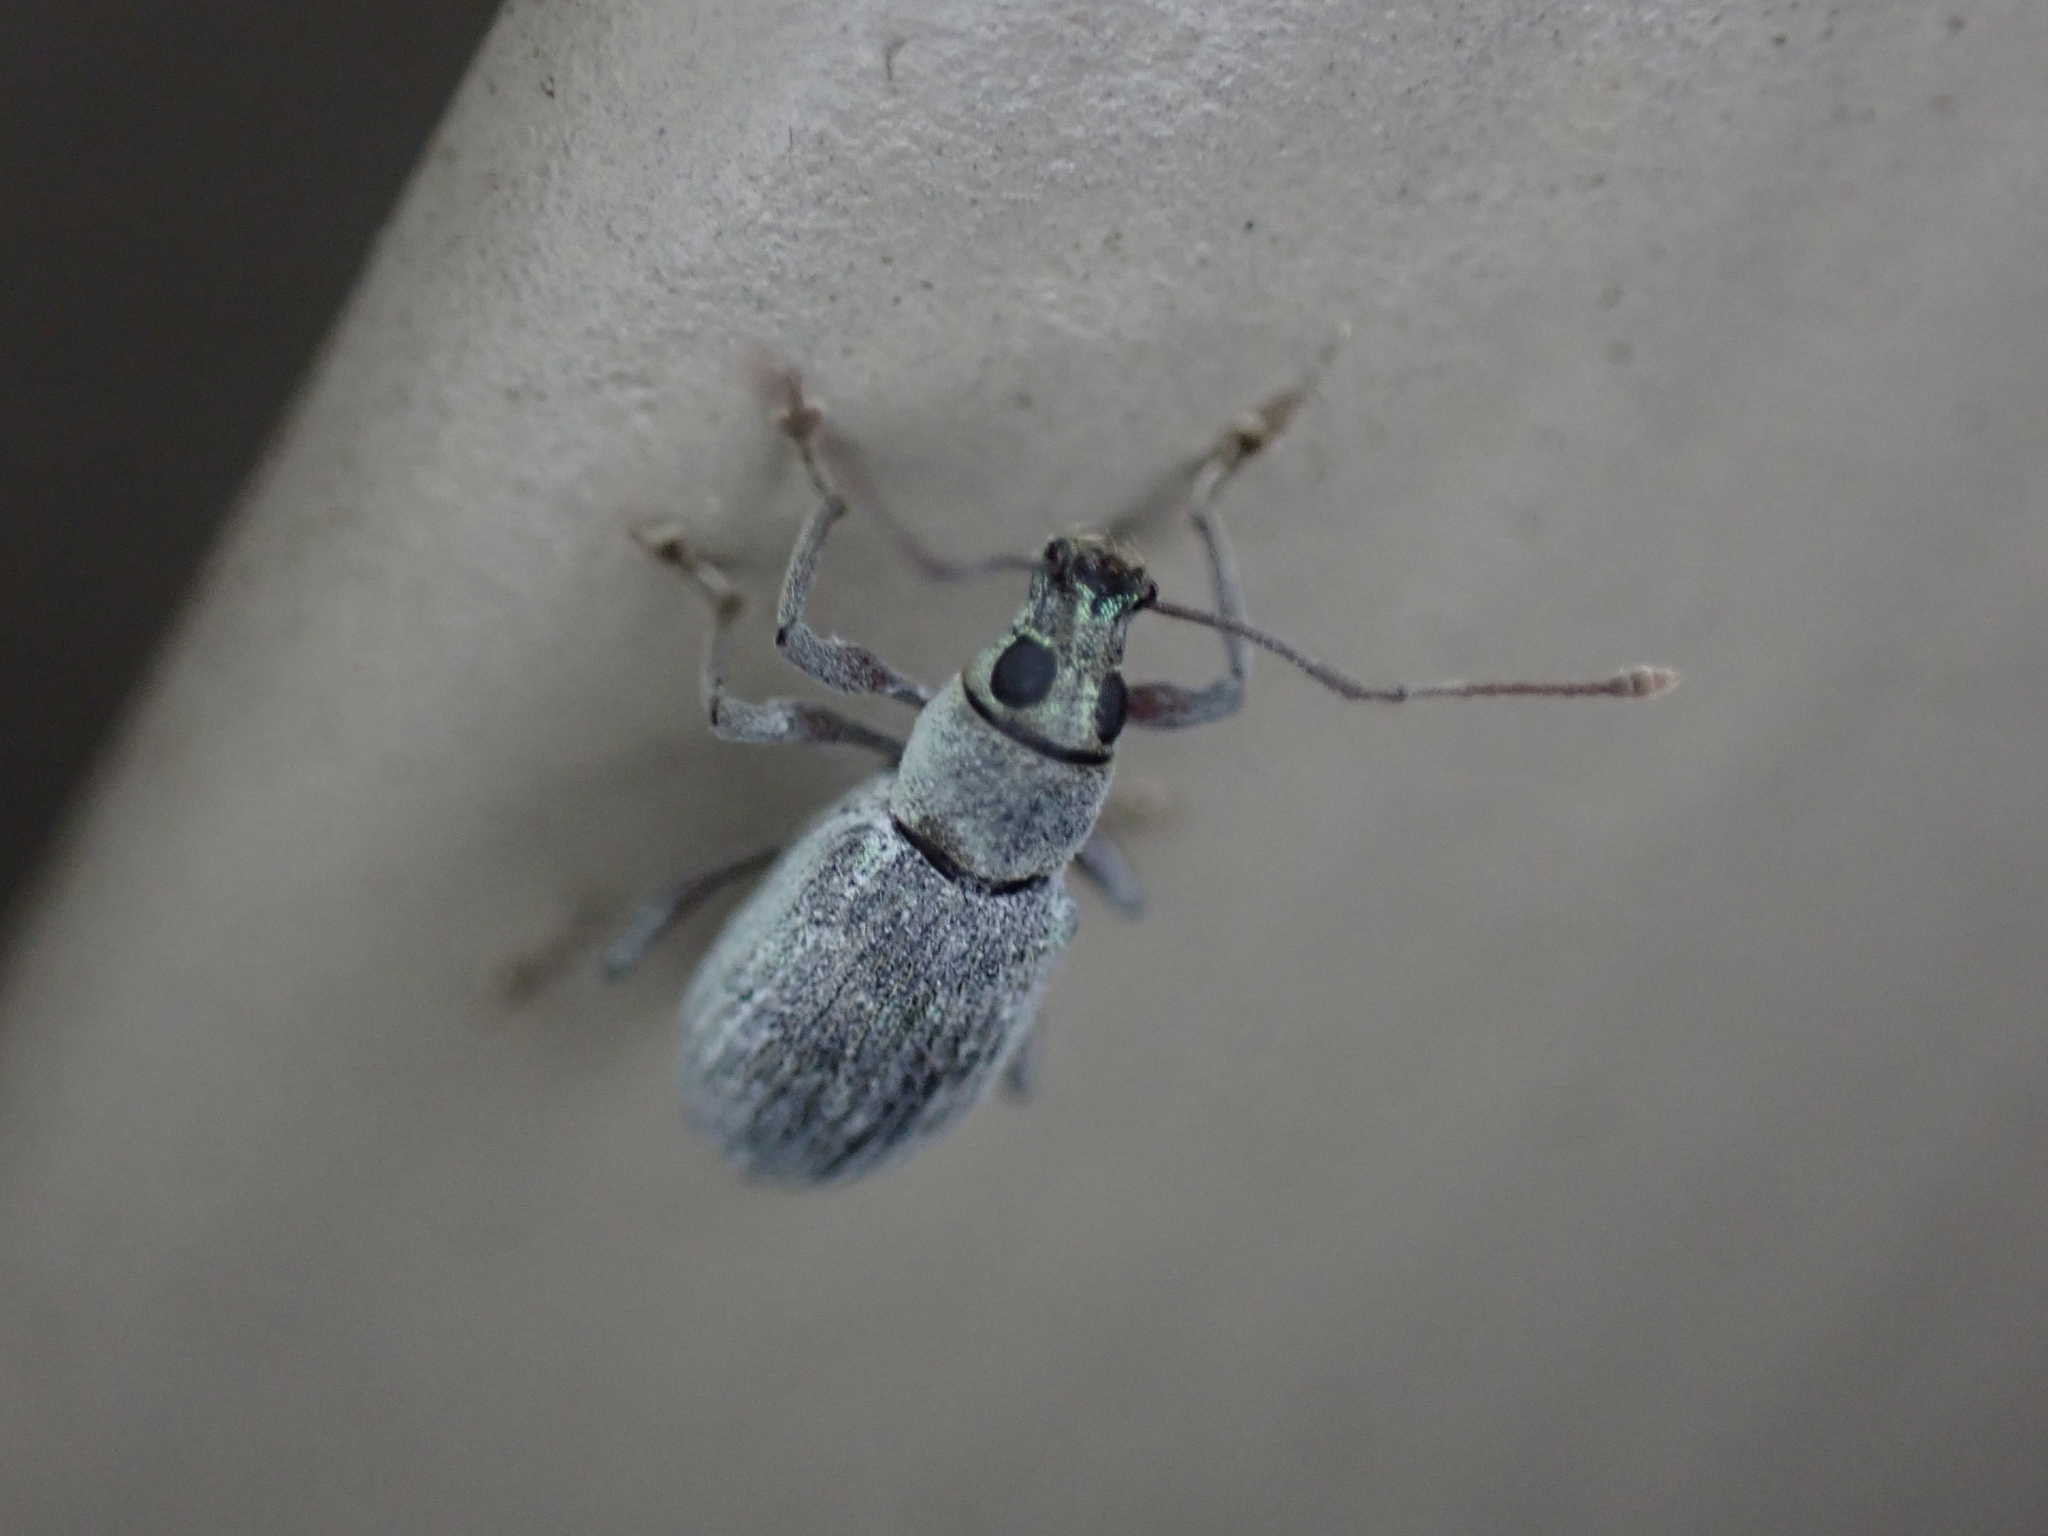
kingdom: Animalia
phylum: Arthropoda
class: Insecta
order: Coleoptera
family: Curculionidae
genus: Cyrtepistomus
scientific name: Cyrtepistomus castaneus
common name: Weevil
